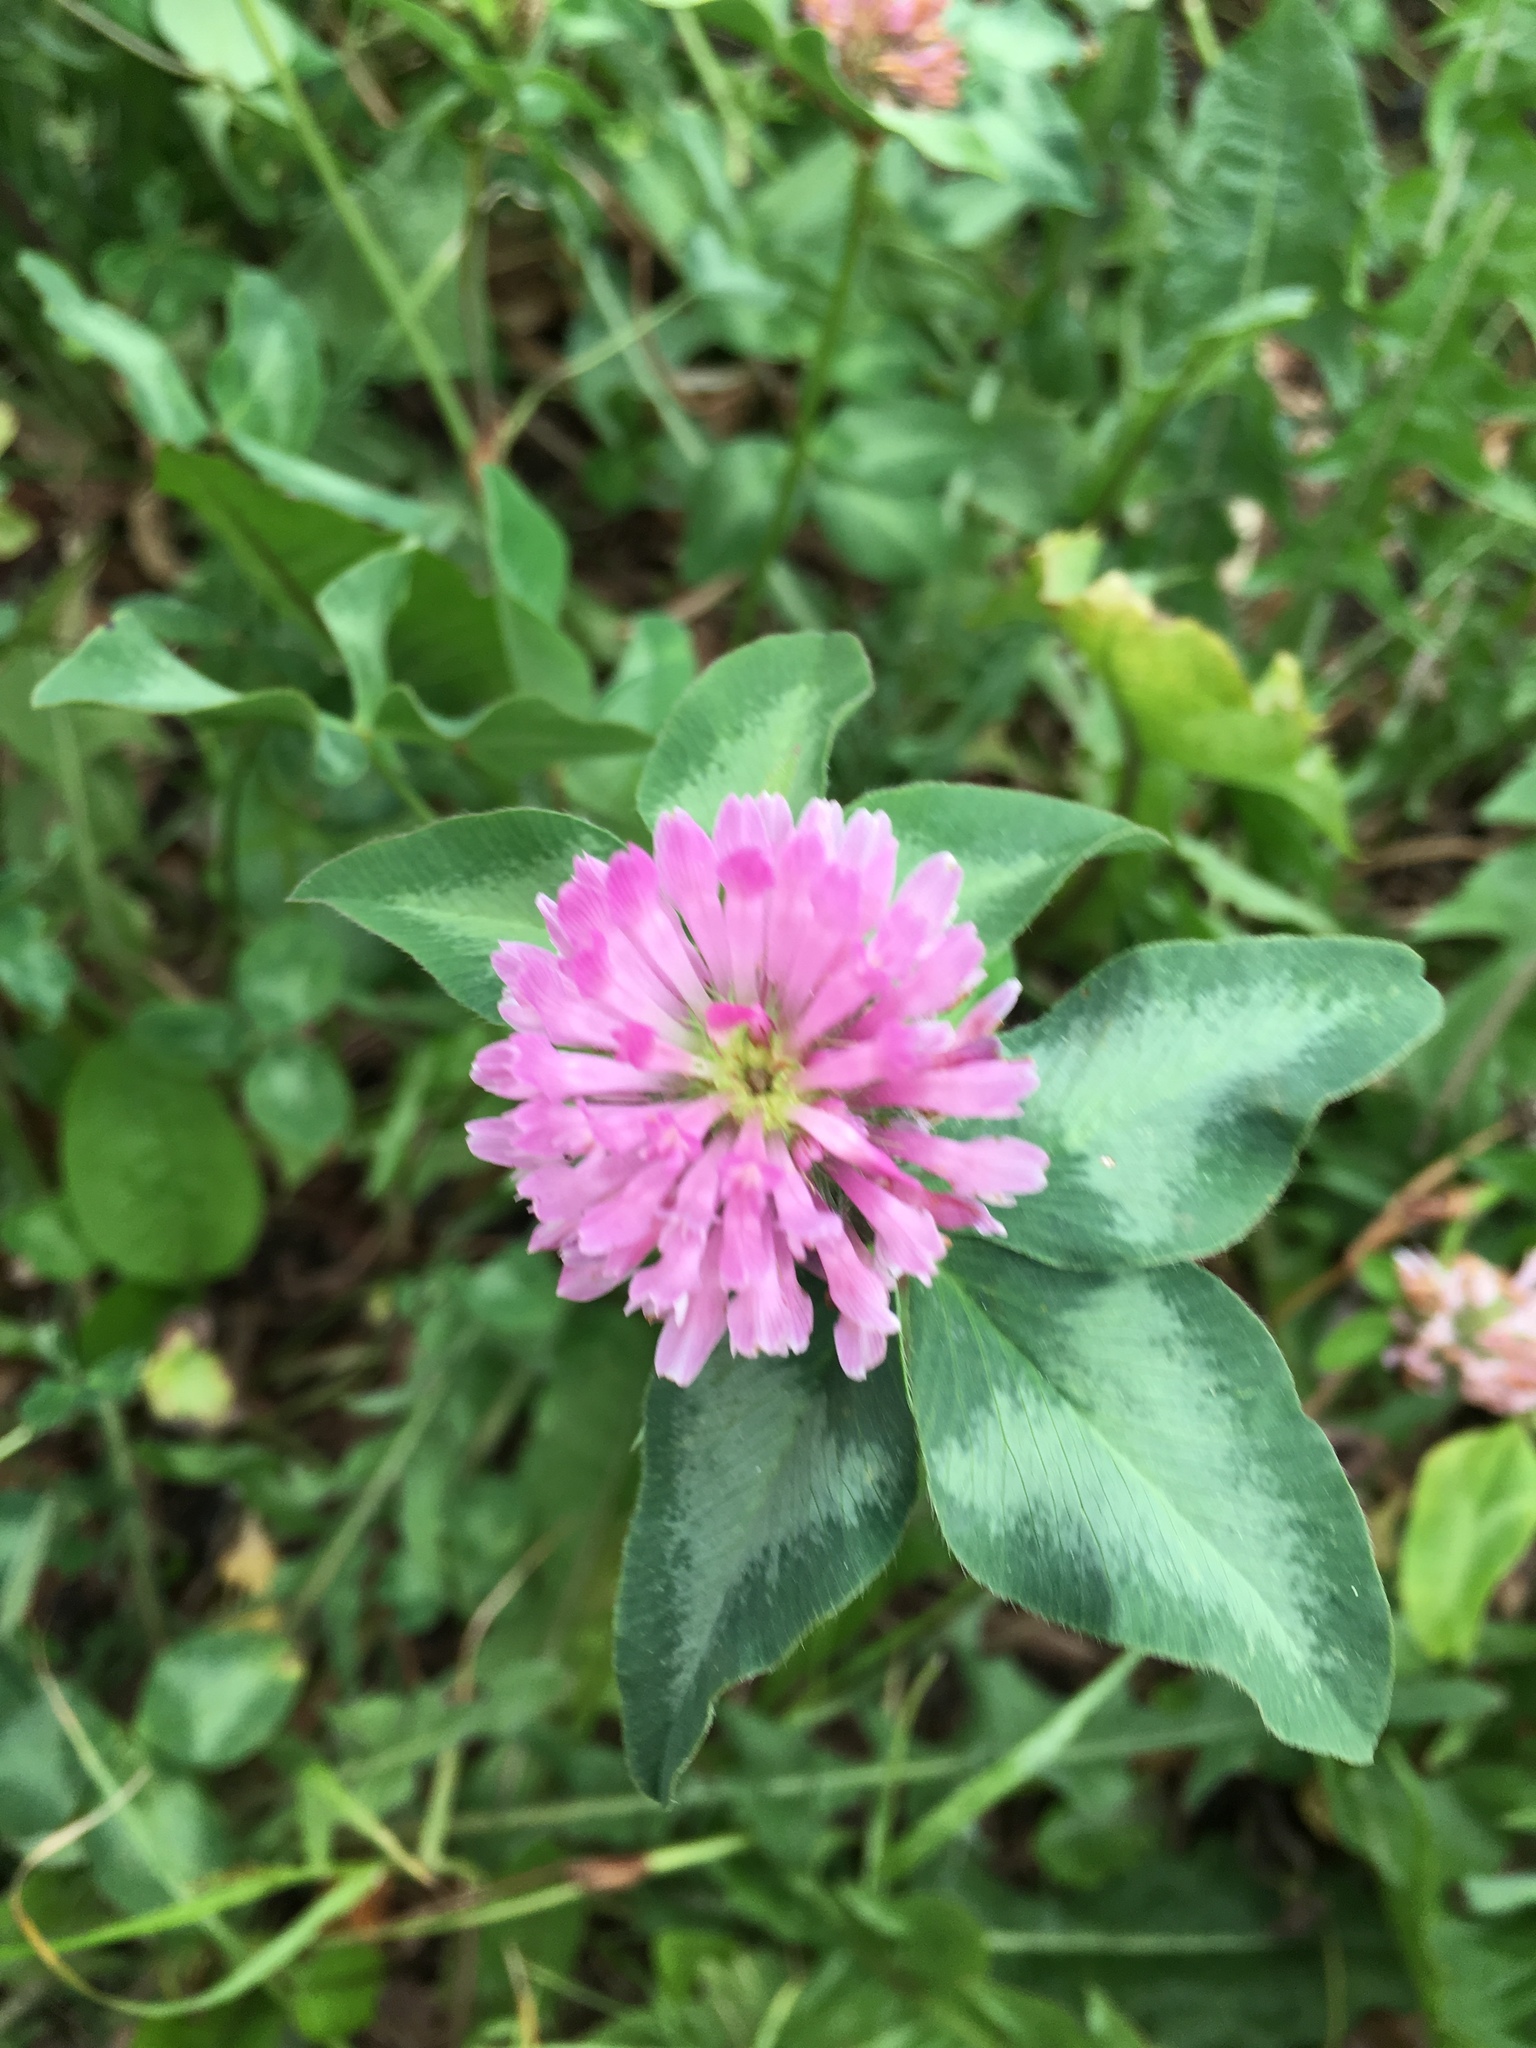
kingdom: Plantae
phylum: Tracheophyta
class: Magnoliopsida
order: Fabales
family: Fabaceae
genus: Trifolium
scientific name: Trifolium pratense
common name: Red clover
